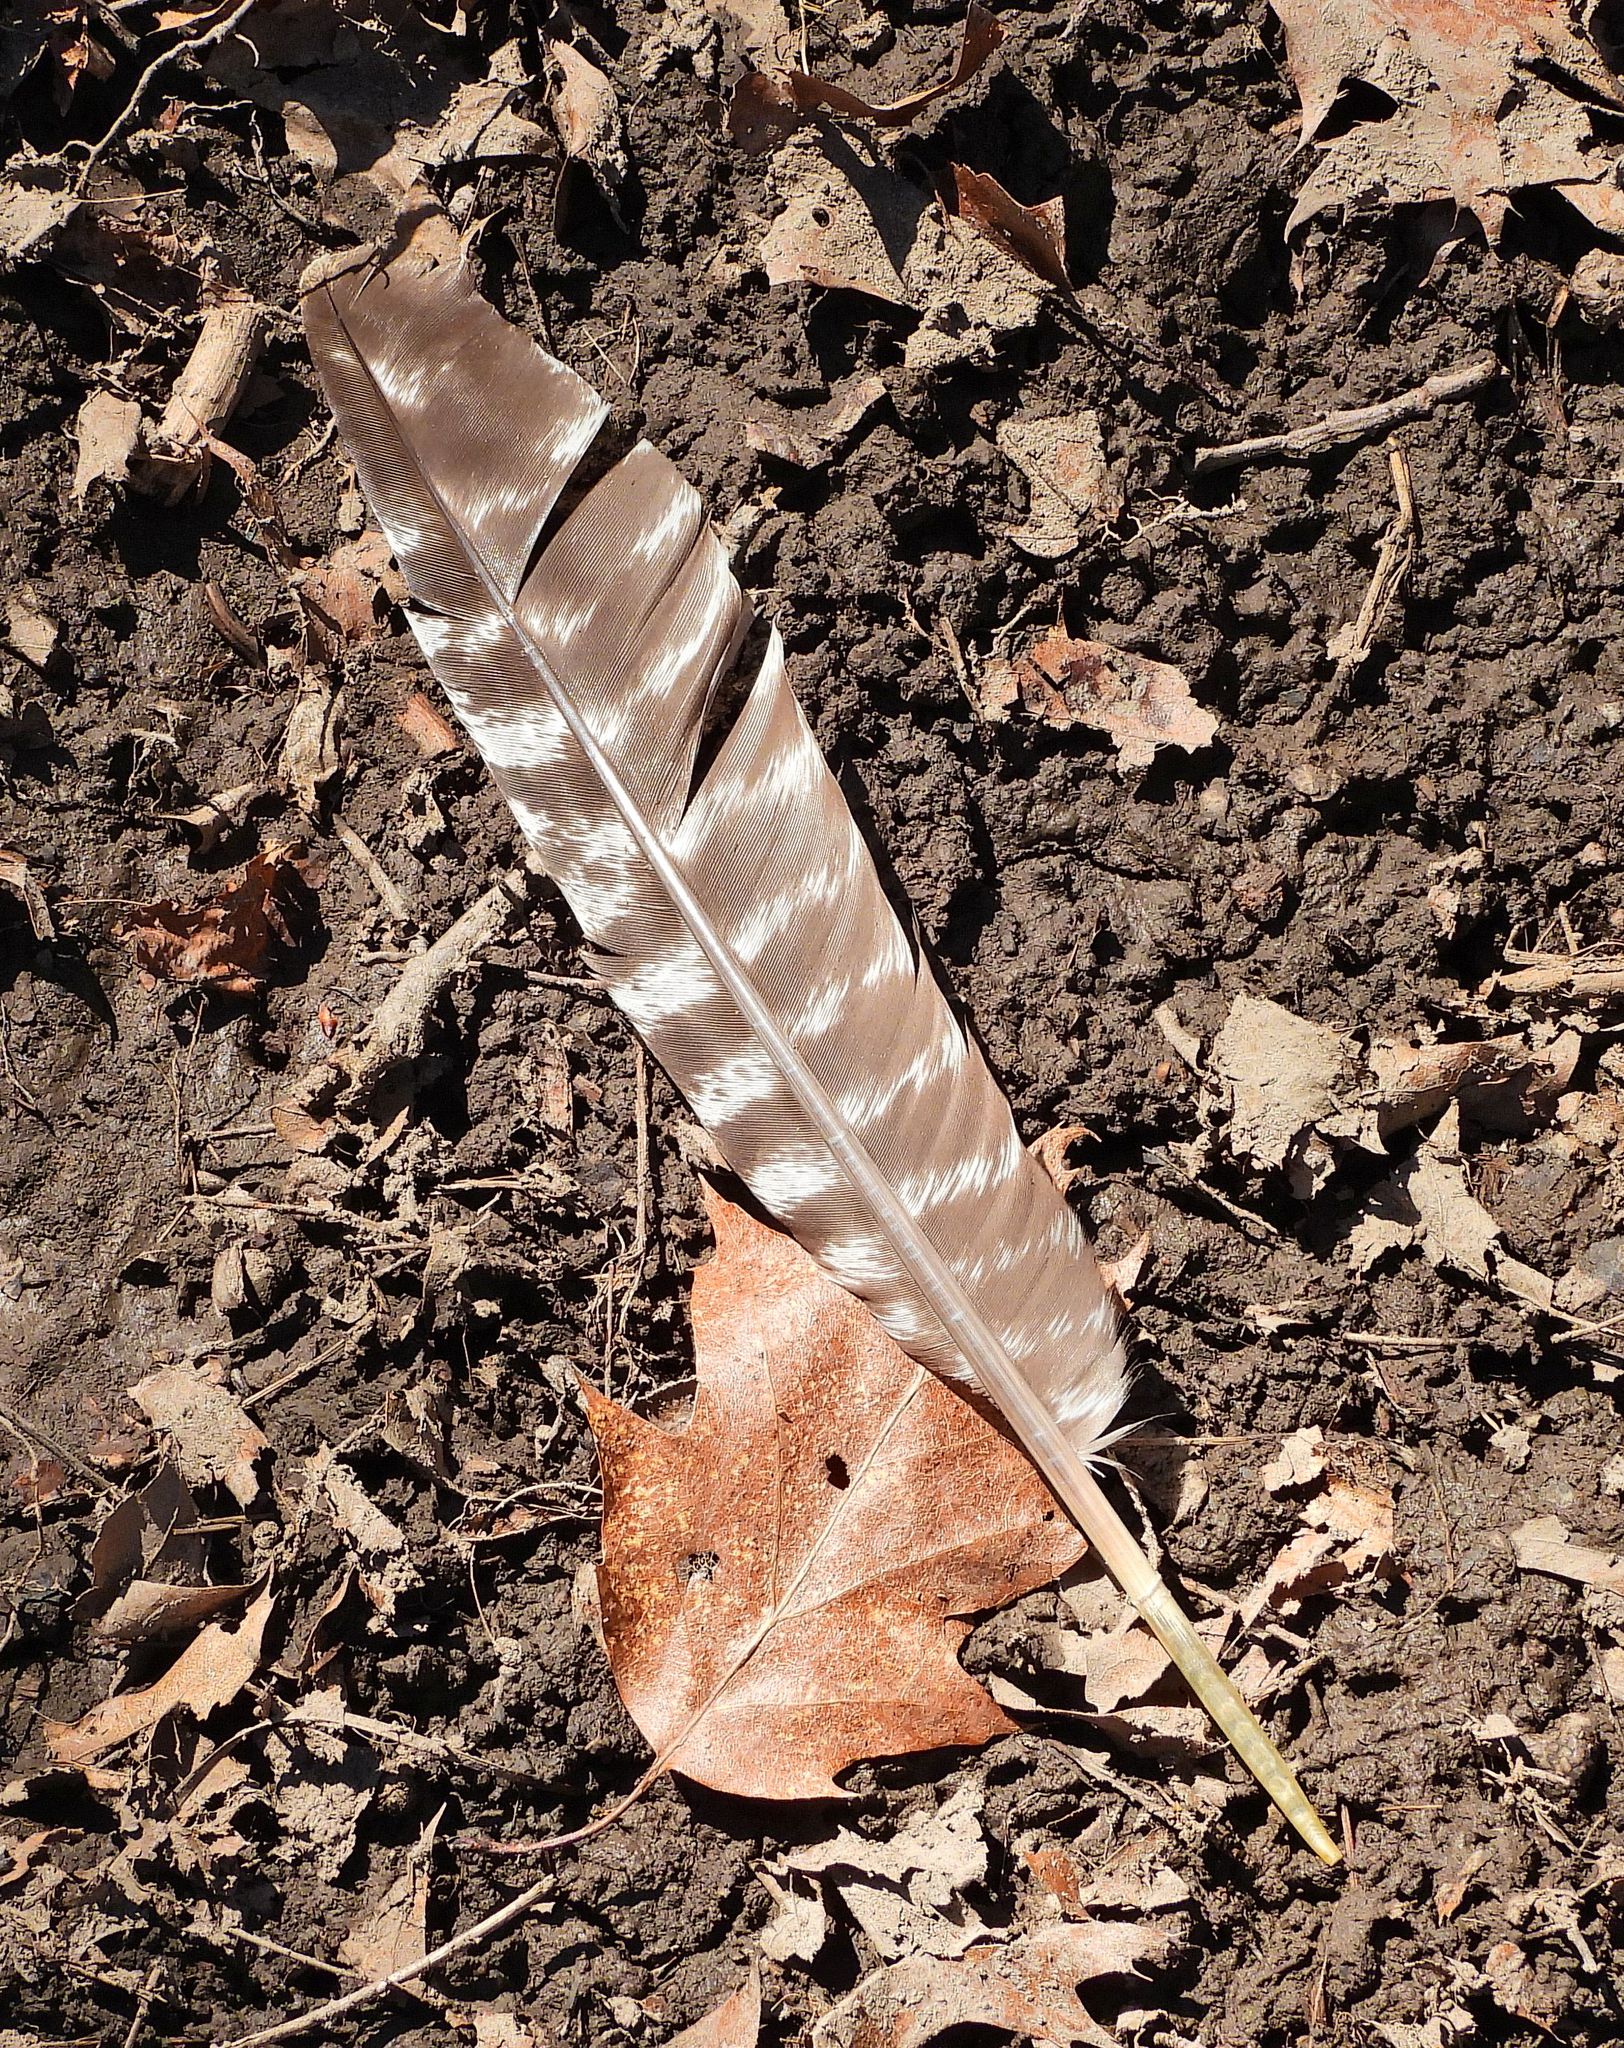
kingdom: Animalia
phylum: Chordata
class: Aves
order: Galliformes
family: Phasianidae
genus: Meleagris
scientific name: Meleagris gallopavo
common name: Wild turkey
